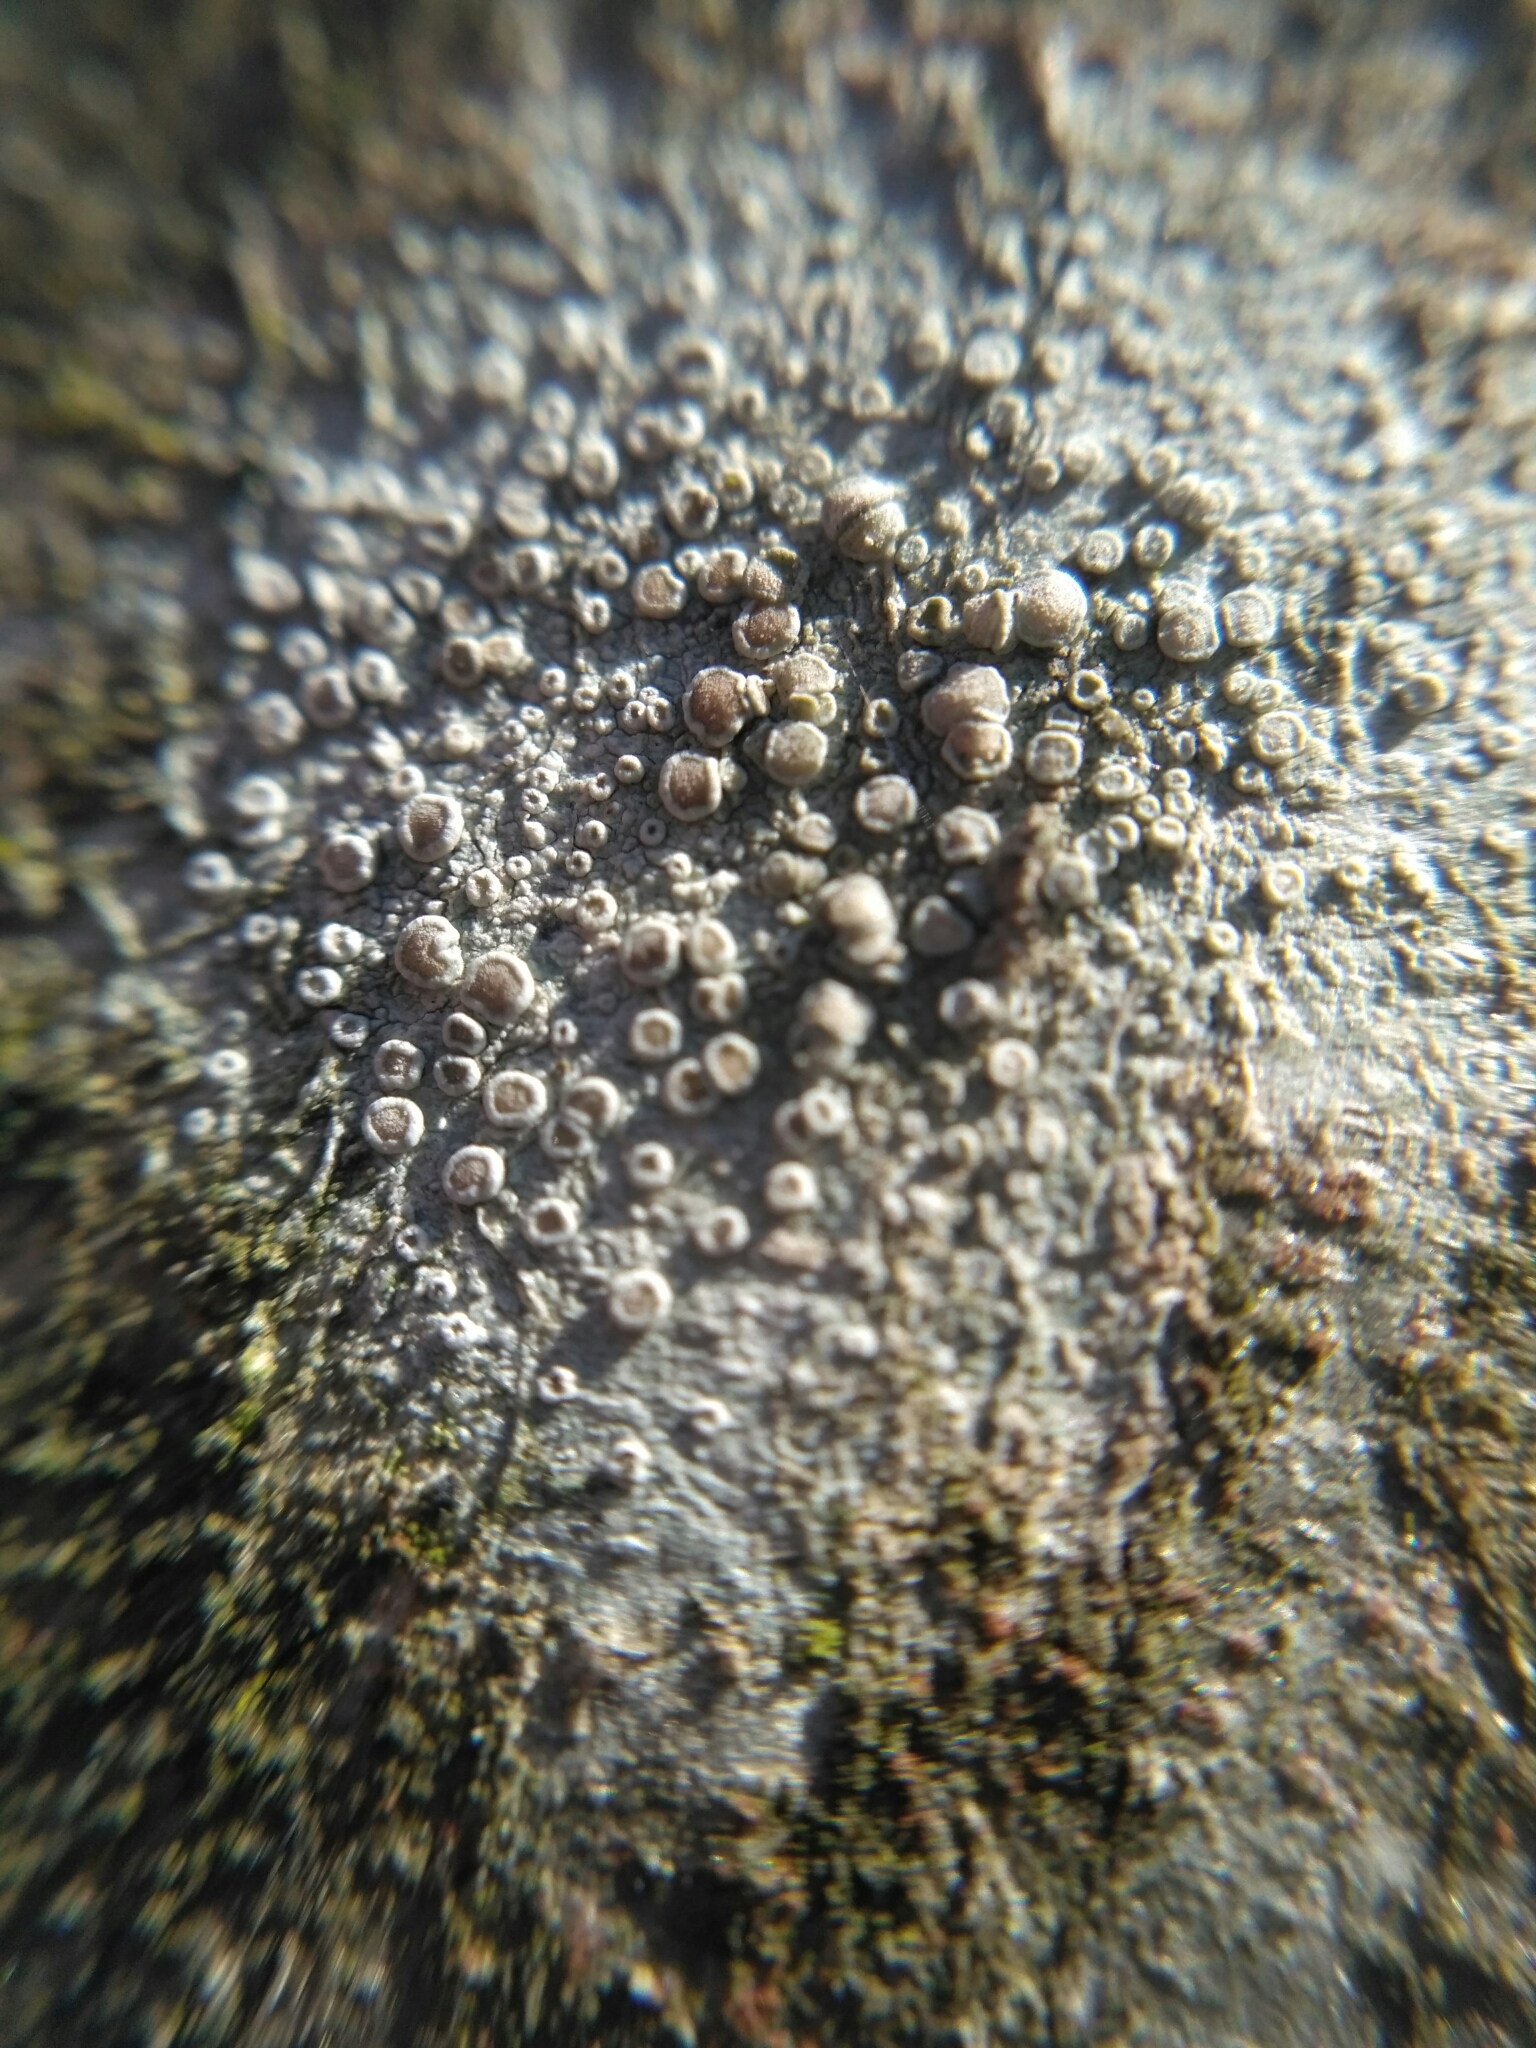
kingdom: Fungi
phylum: Ascomycota
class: Lecanoromycetes
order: Lecanorales
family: Lecanoraceae
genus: Glaucomaria
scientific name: Glaucomaria carpinea
